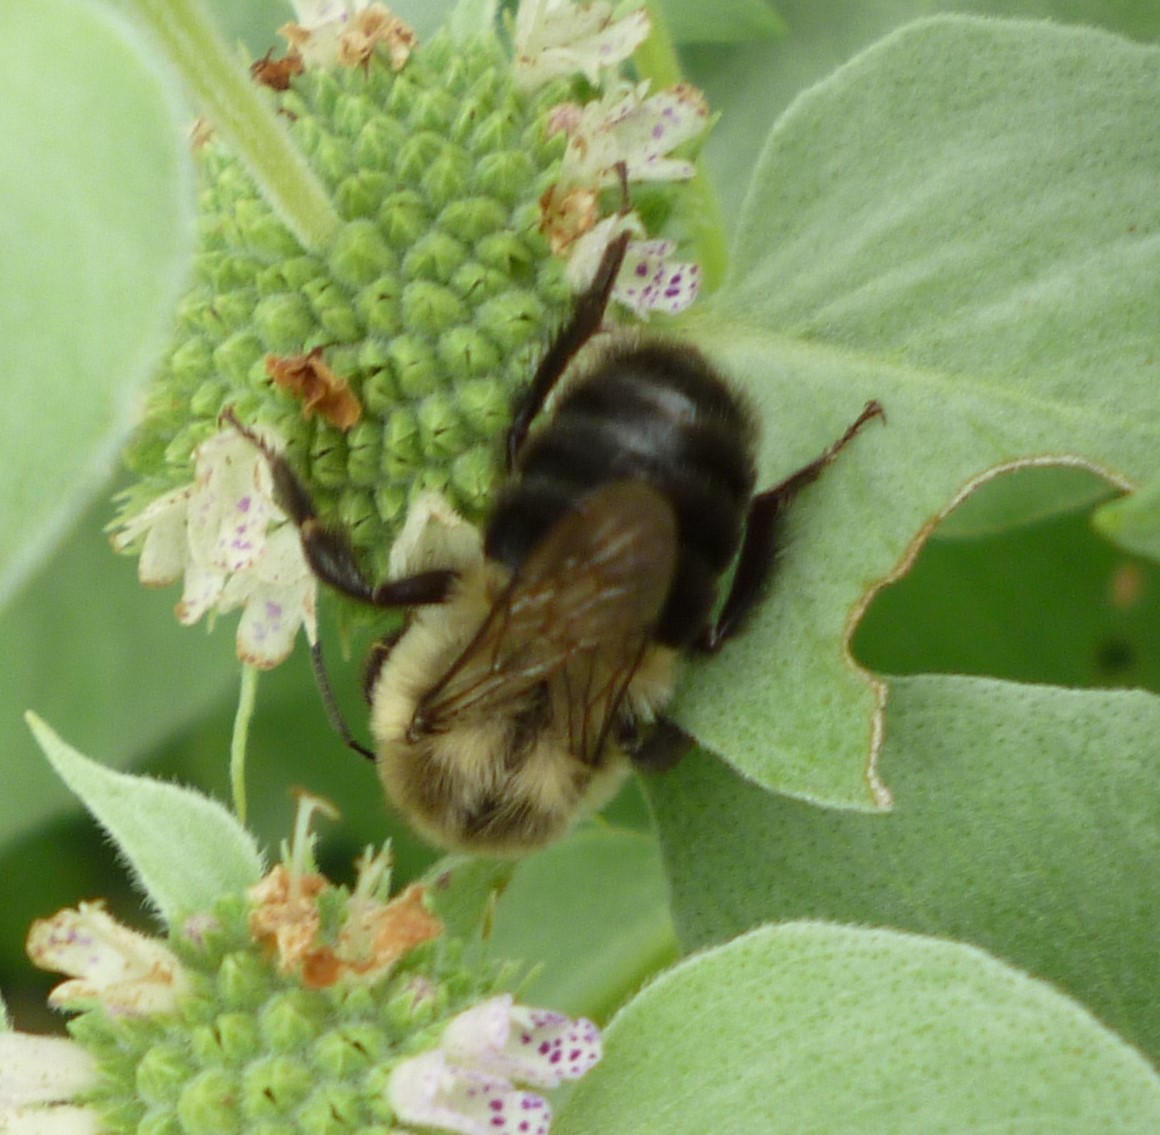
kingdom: Animalia
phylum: Arthropoda
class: Insecta
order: Hymenoptera
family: Apidae
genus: Bombus
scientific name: Bombus impatiens
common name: Common eastern bumble bee
